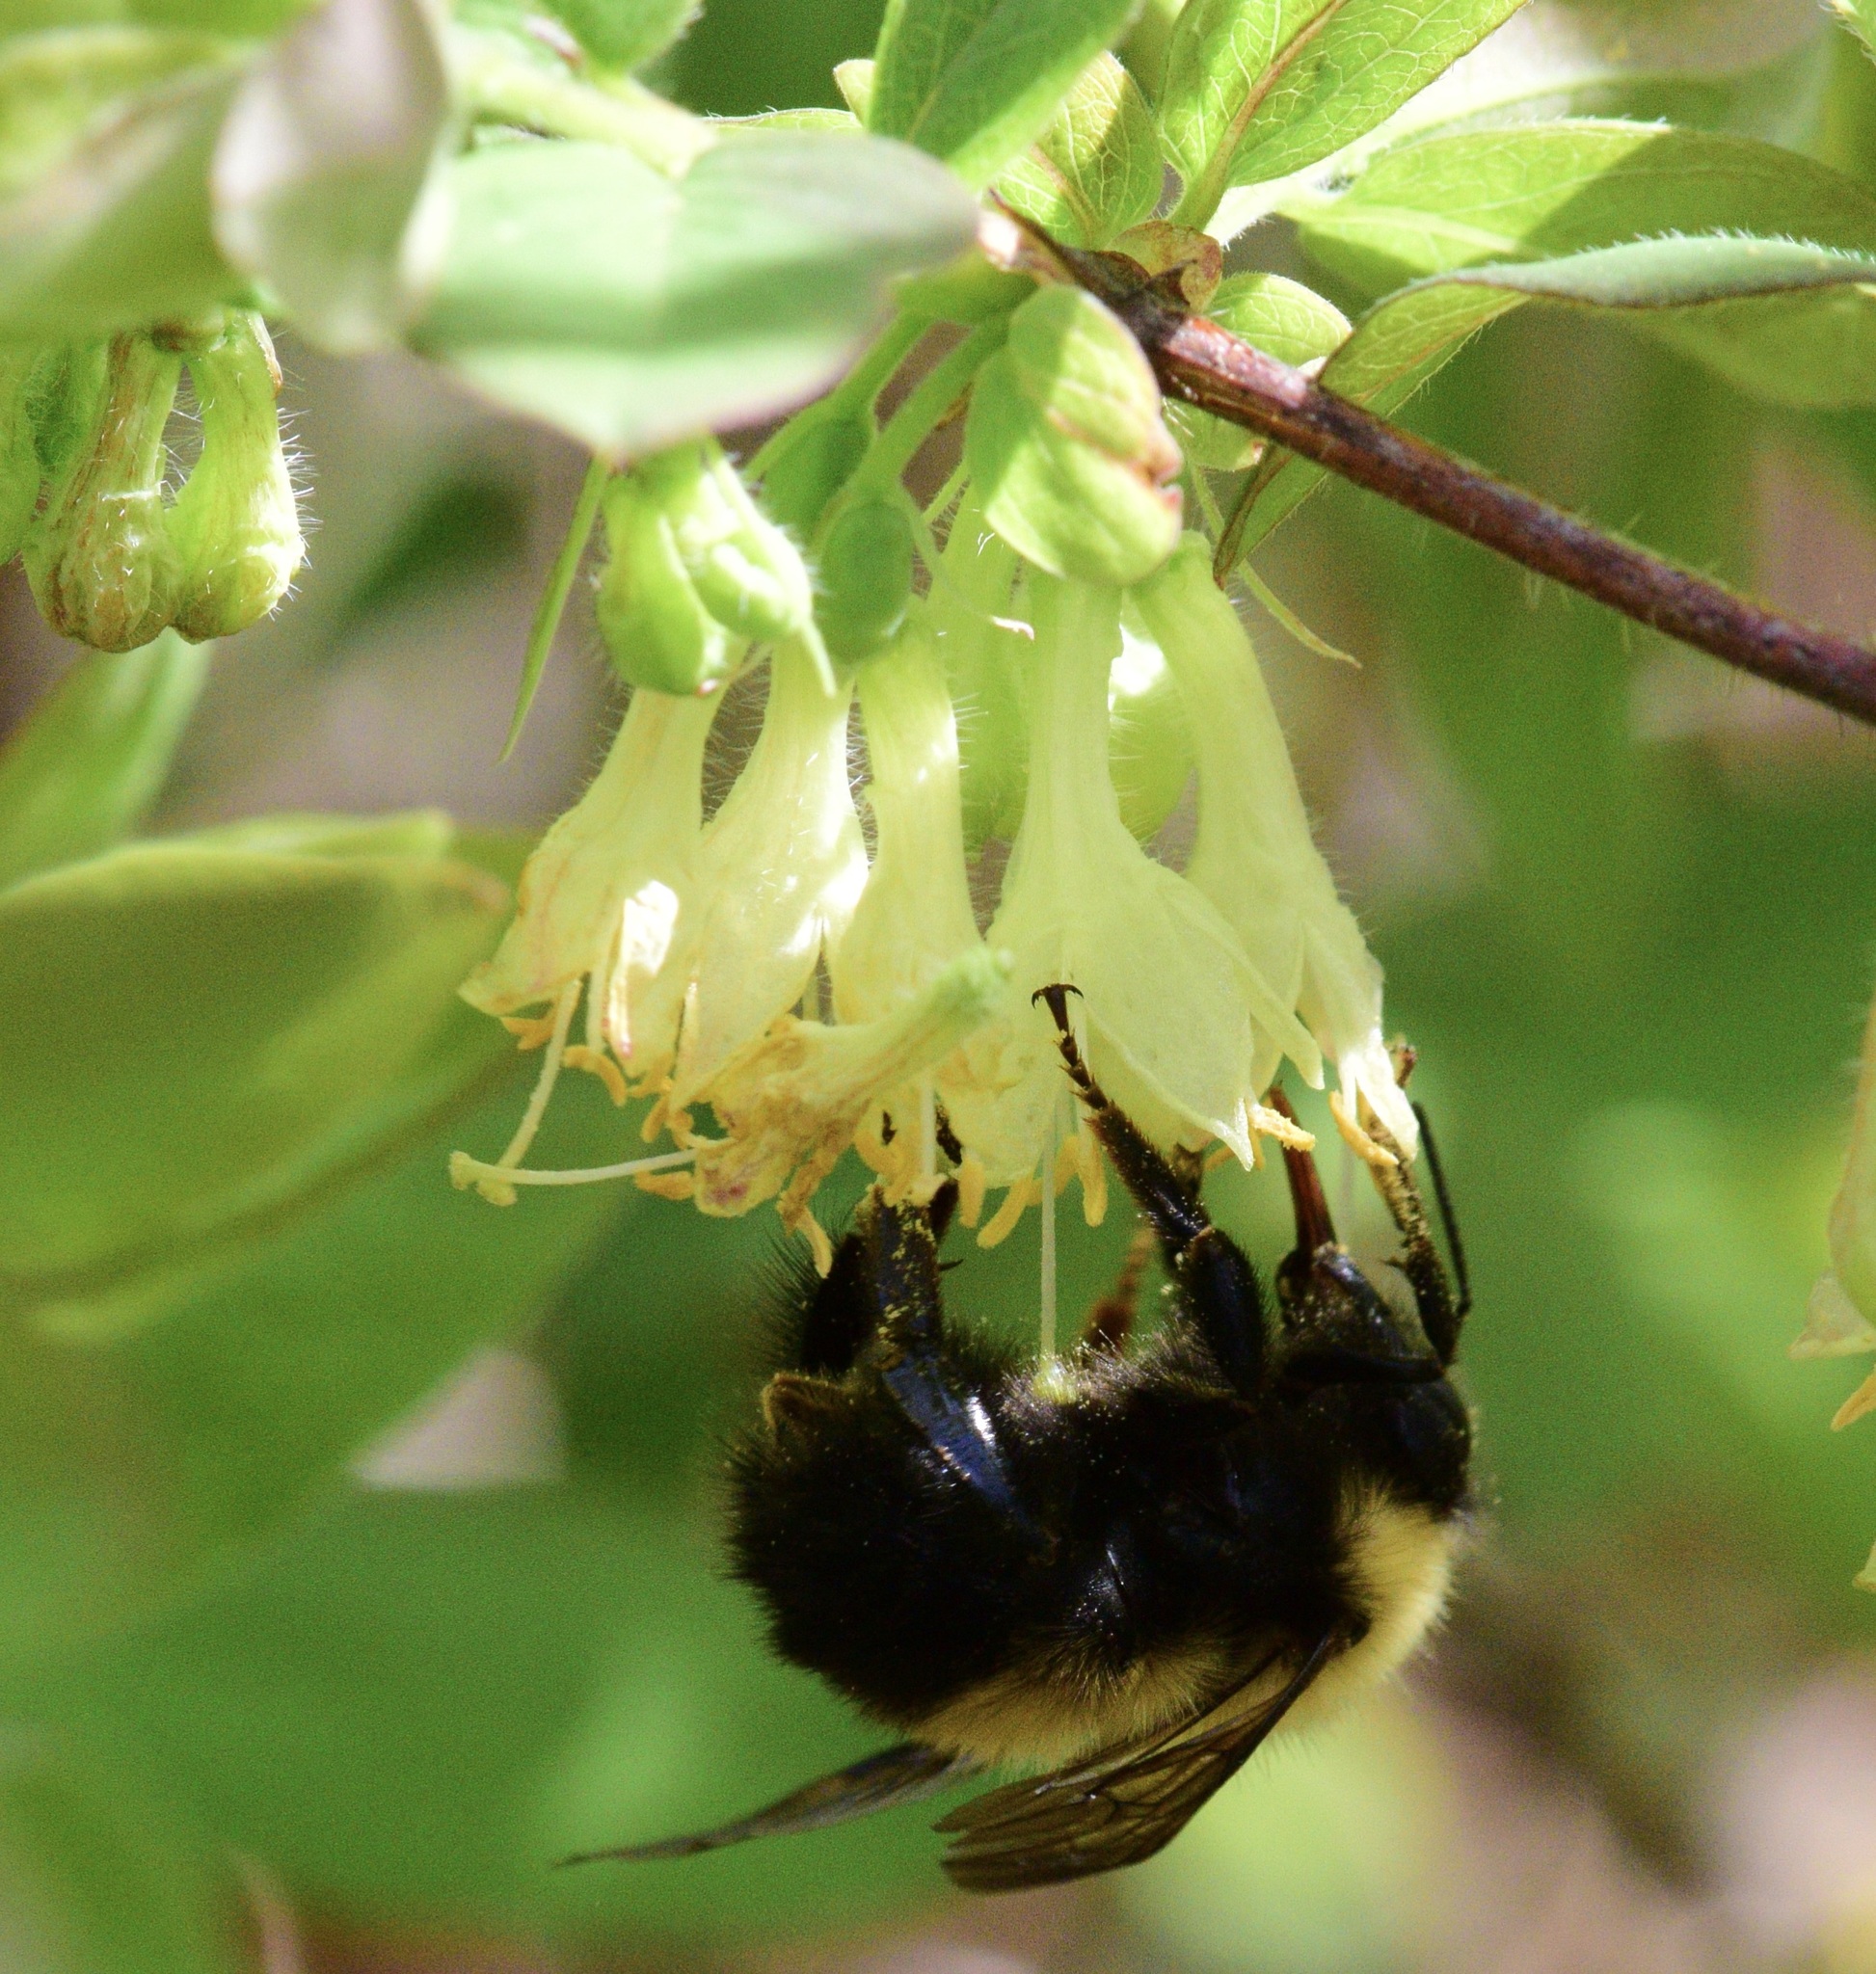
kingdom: Animalia
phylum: Arthropoda
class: Insecta
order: Hymenoptera
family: Apidae
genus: Bombus
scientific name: Bombus perplexus
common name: Confusing bumble bee
